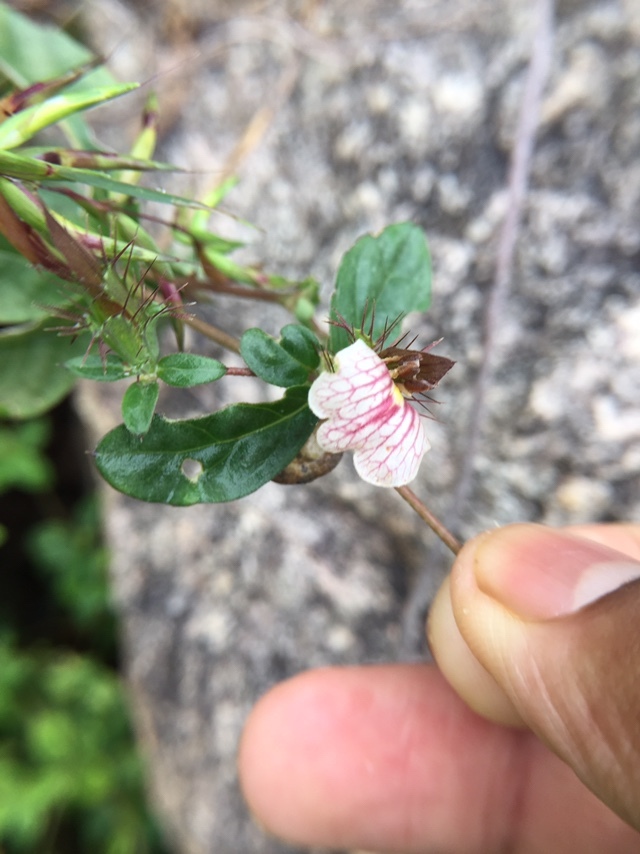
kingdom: Plantae
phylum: Tracheophyta
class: Magnoliopsida
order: Lamiales
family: Acanthaceae
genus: Blepharis
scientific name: Blepharis maderaspatensis
